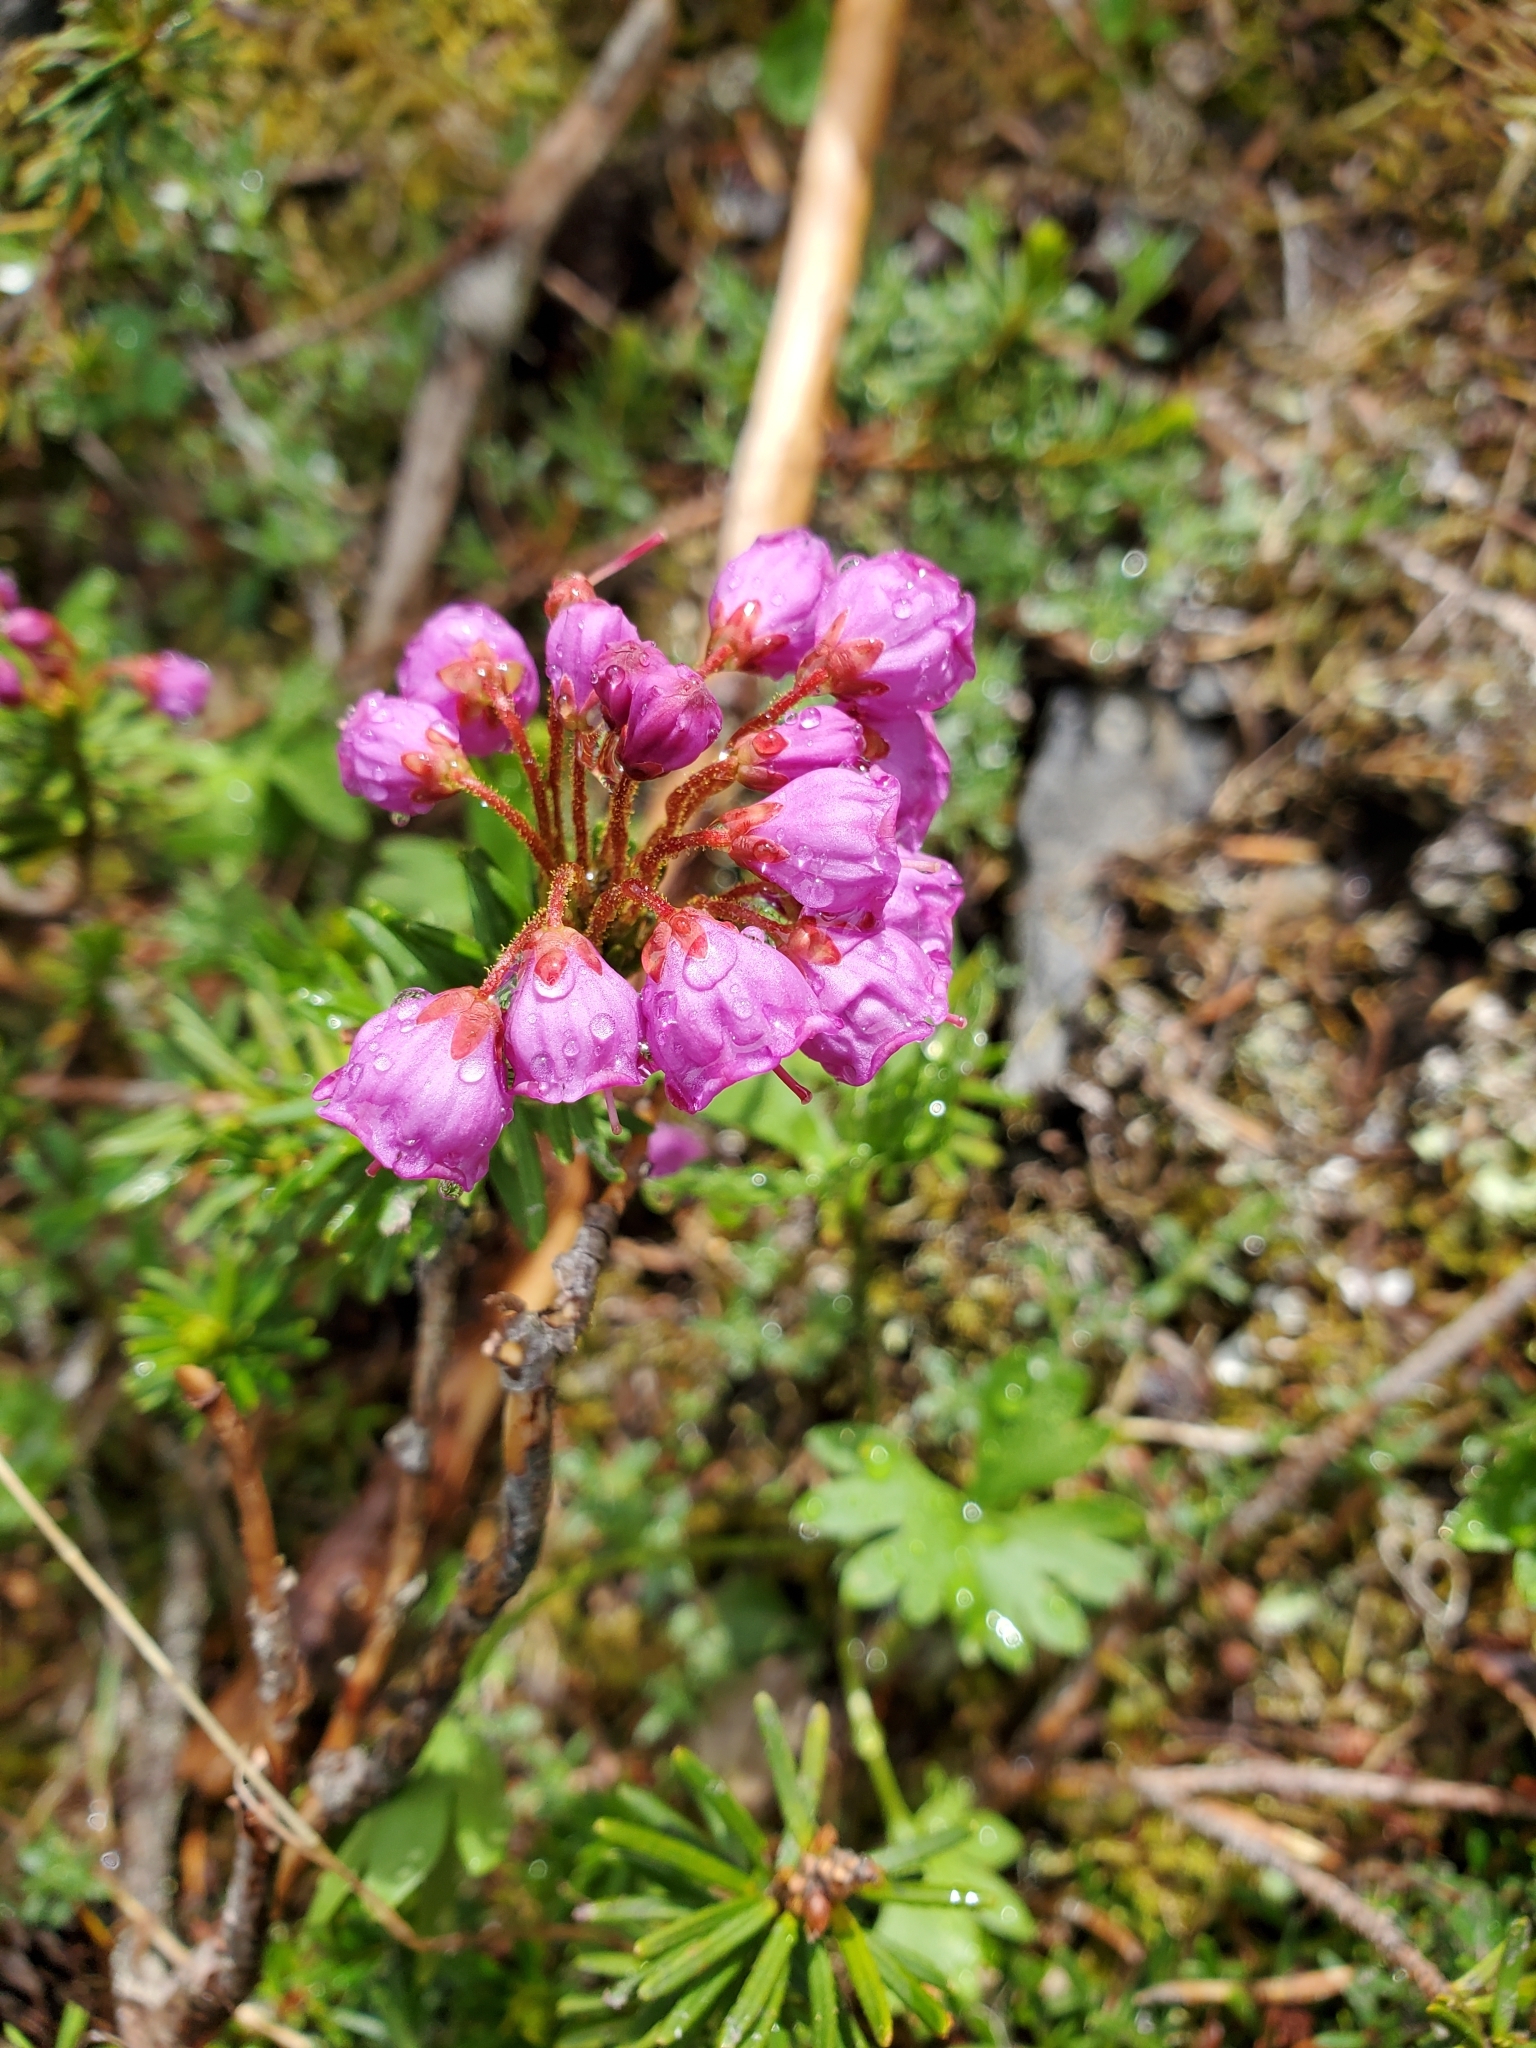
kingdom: Plantae
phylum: Tracheophyta
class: Magnoliopsida
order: Ericales
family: Ericaceae
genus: Phyllodoce
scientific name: Phyllodoce empetriformis
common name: Pink mountain heather
